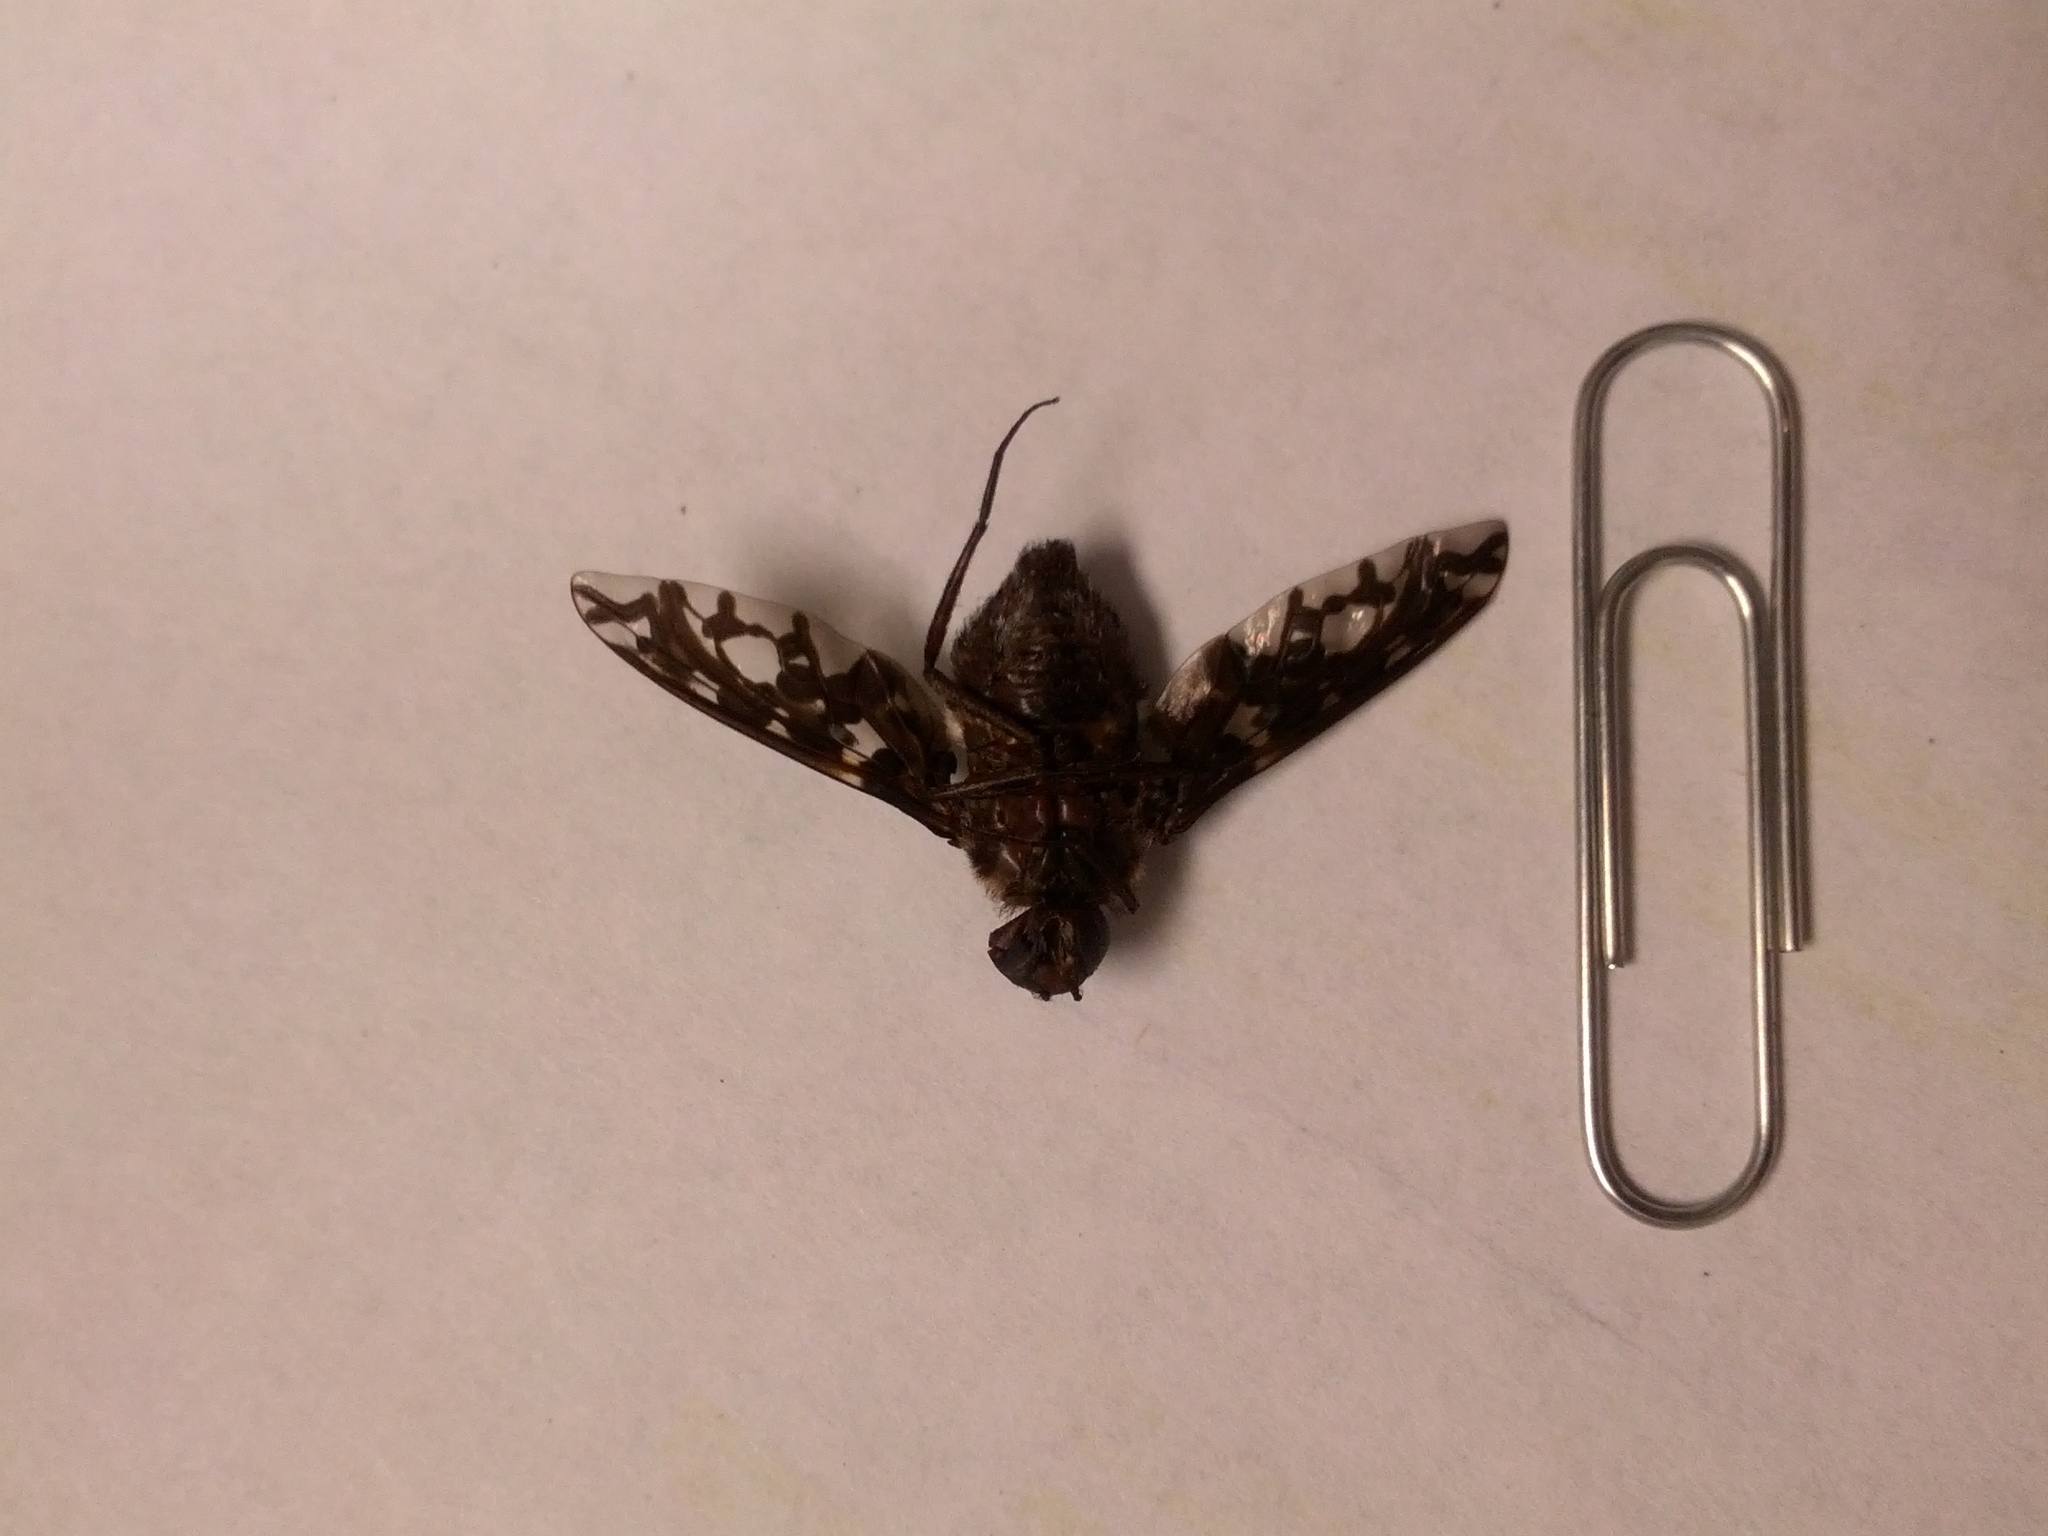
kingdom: Animalia
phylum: Arthropoda
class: Insecta
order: Diptera
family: Bombyliidae
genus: Xenox
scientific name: Xenox tigrinus
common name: Tiger bee fly
